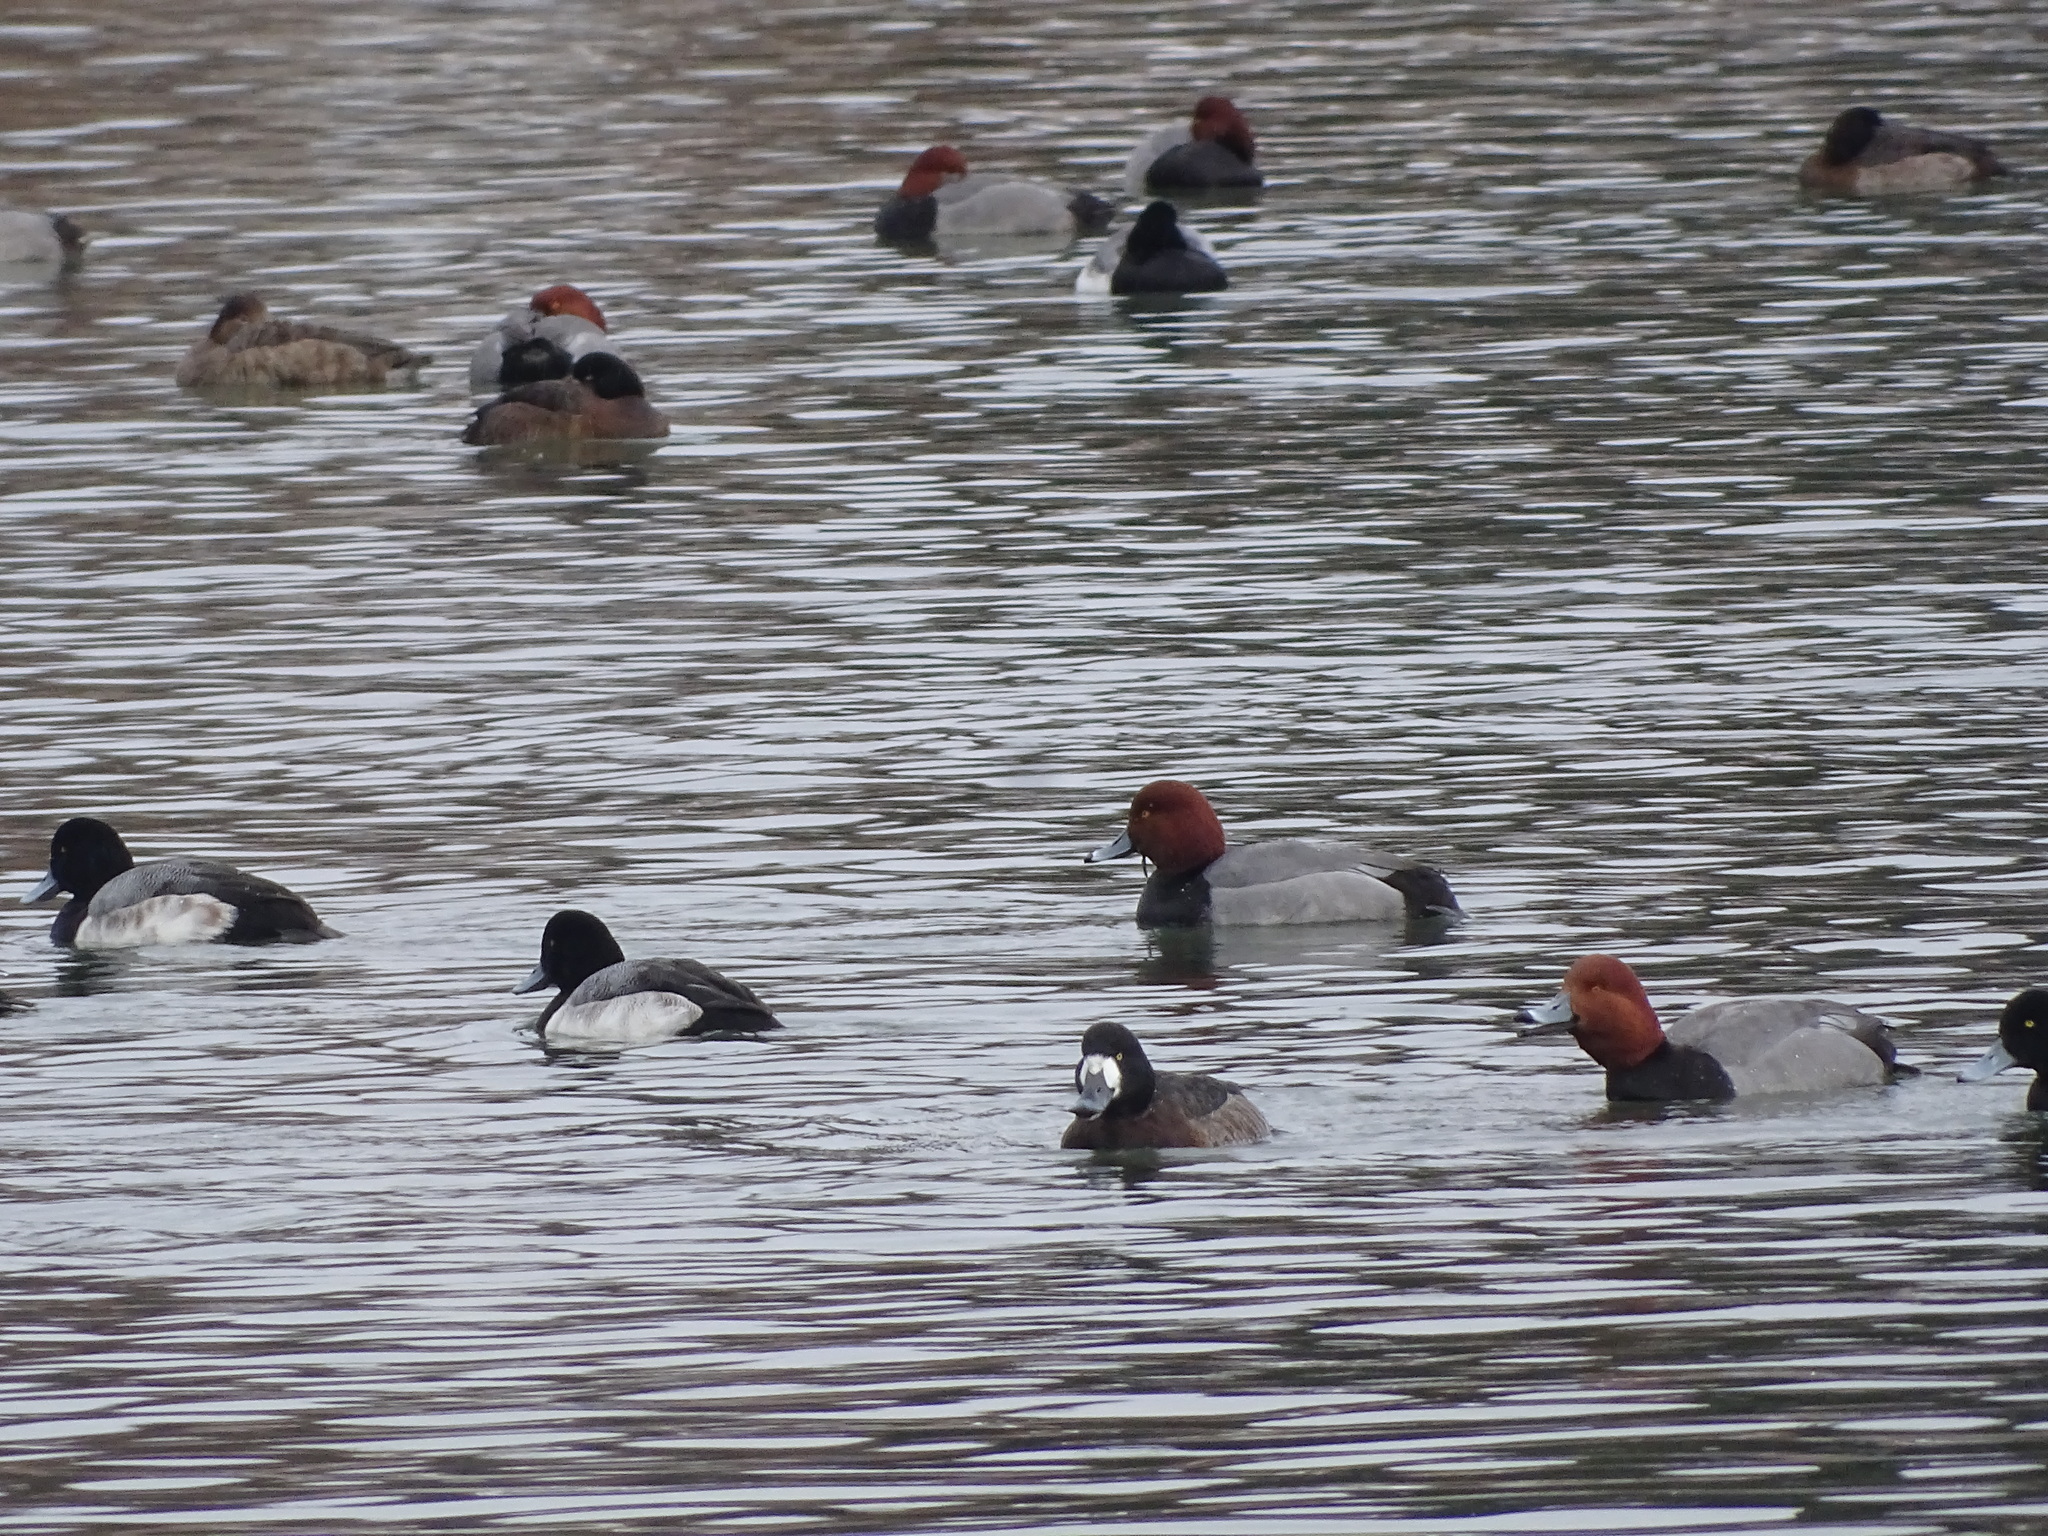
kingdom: Animalia
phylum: Chordata
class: Aves
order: Anseriformes
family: Anatidae
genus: Aythya
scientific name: Aythya americana
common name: Redhead
